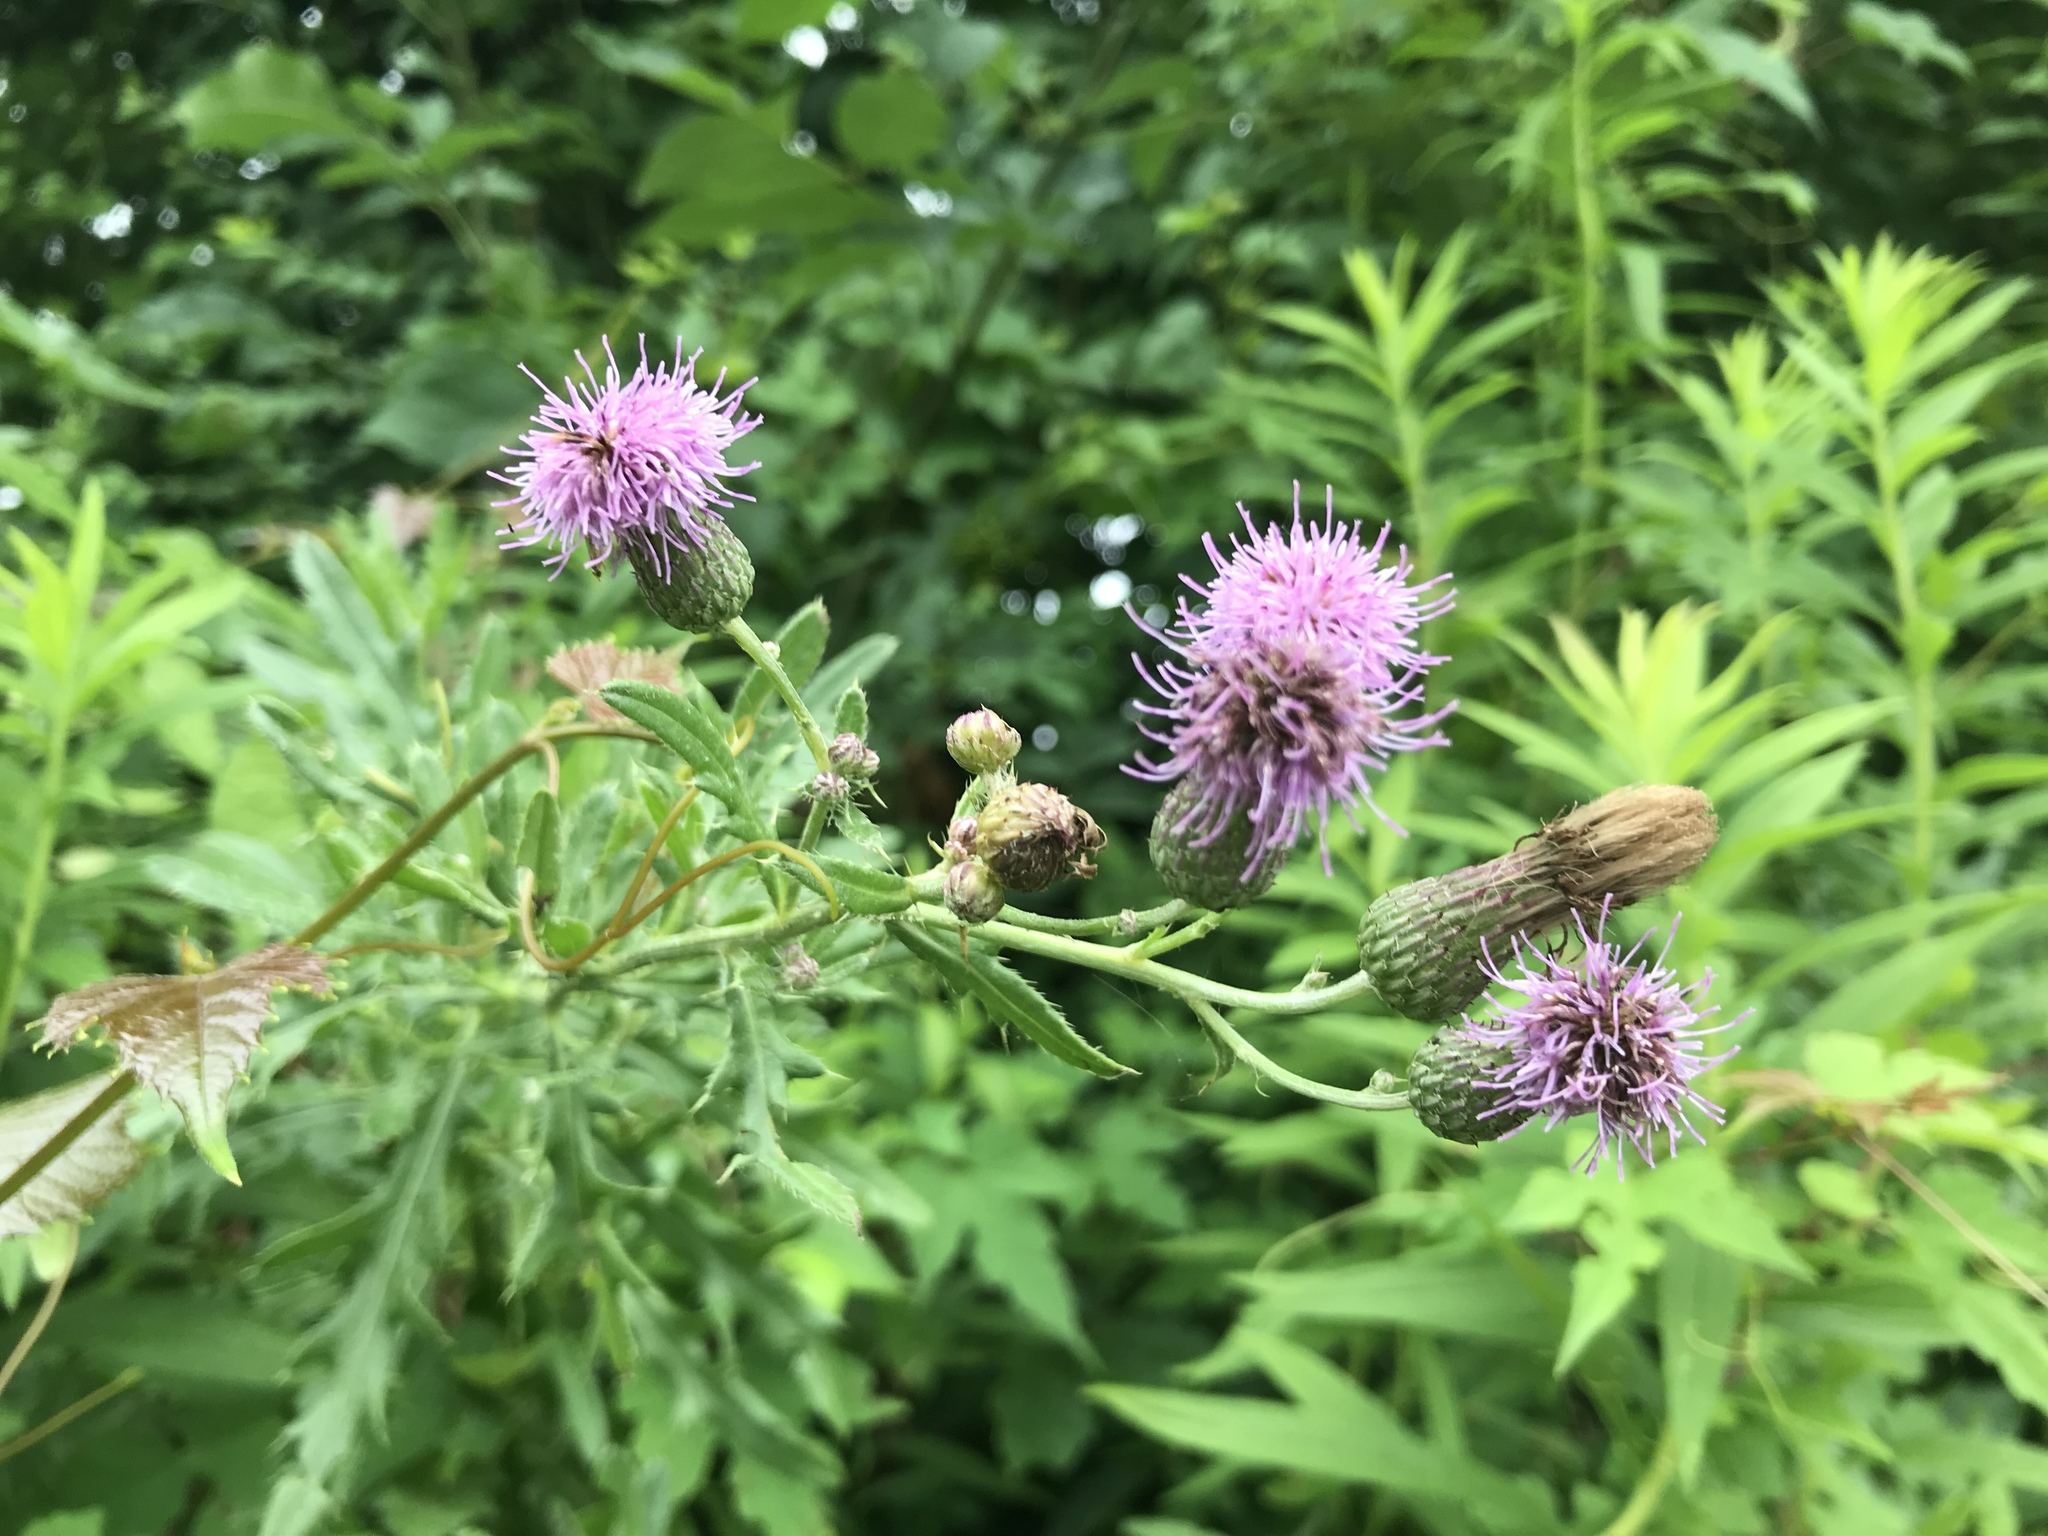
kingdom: Plantae
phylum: Tracheophyta
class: Magnoliopsida
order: Asterales
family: Asteraceae
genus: Cirsium
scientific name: Cirsium arvense
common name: Creeping thistle
